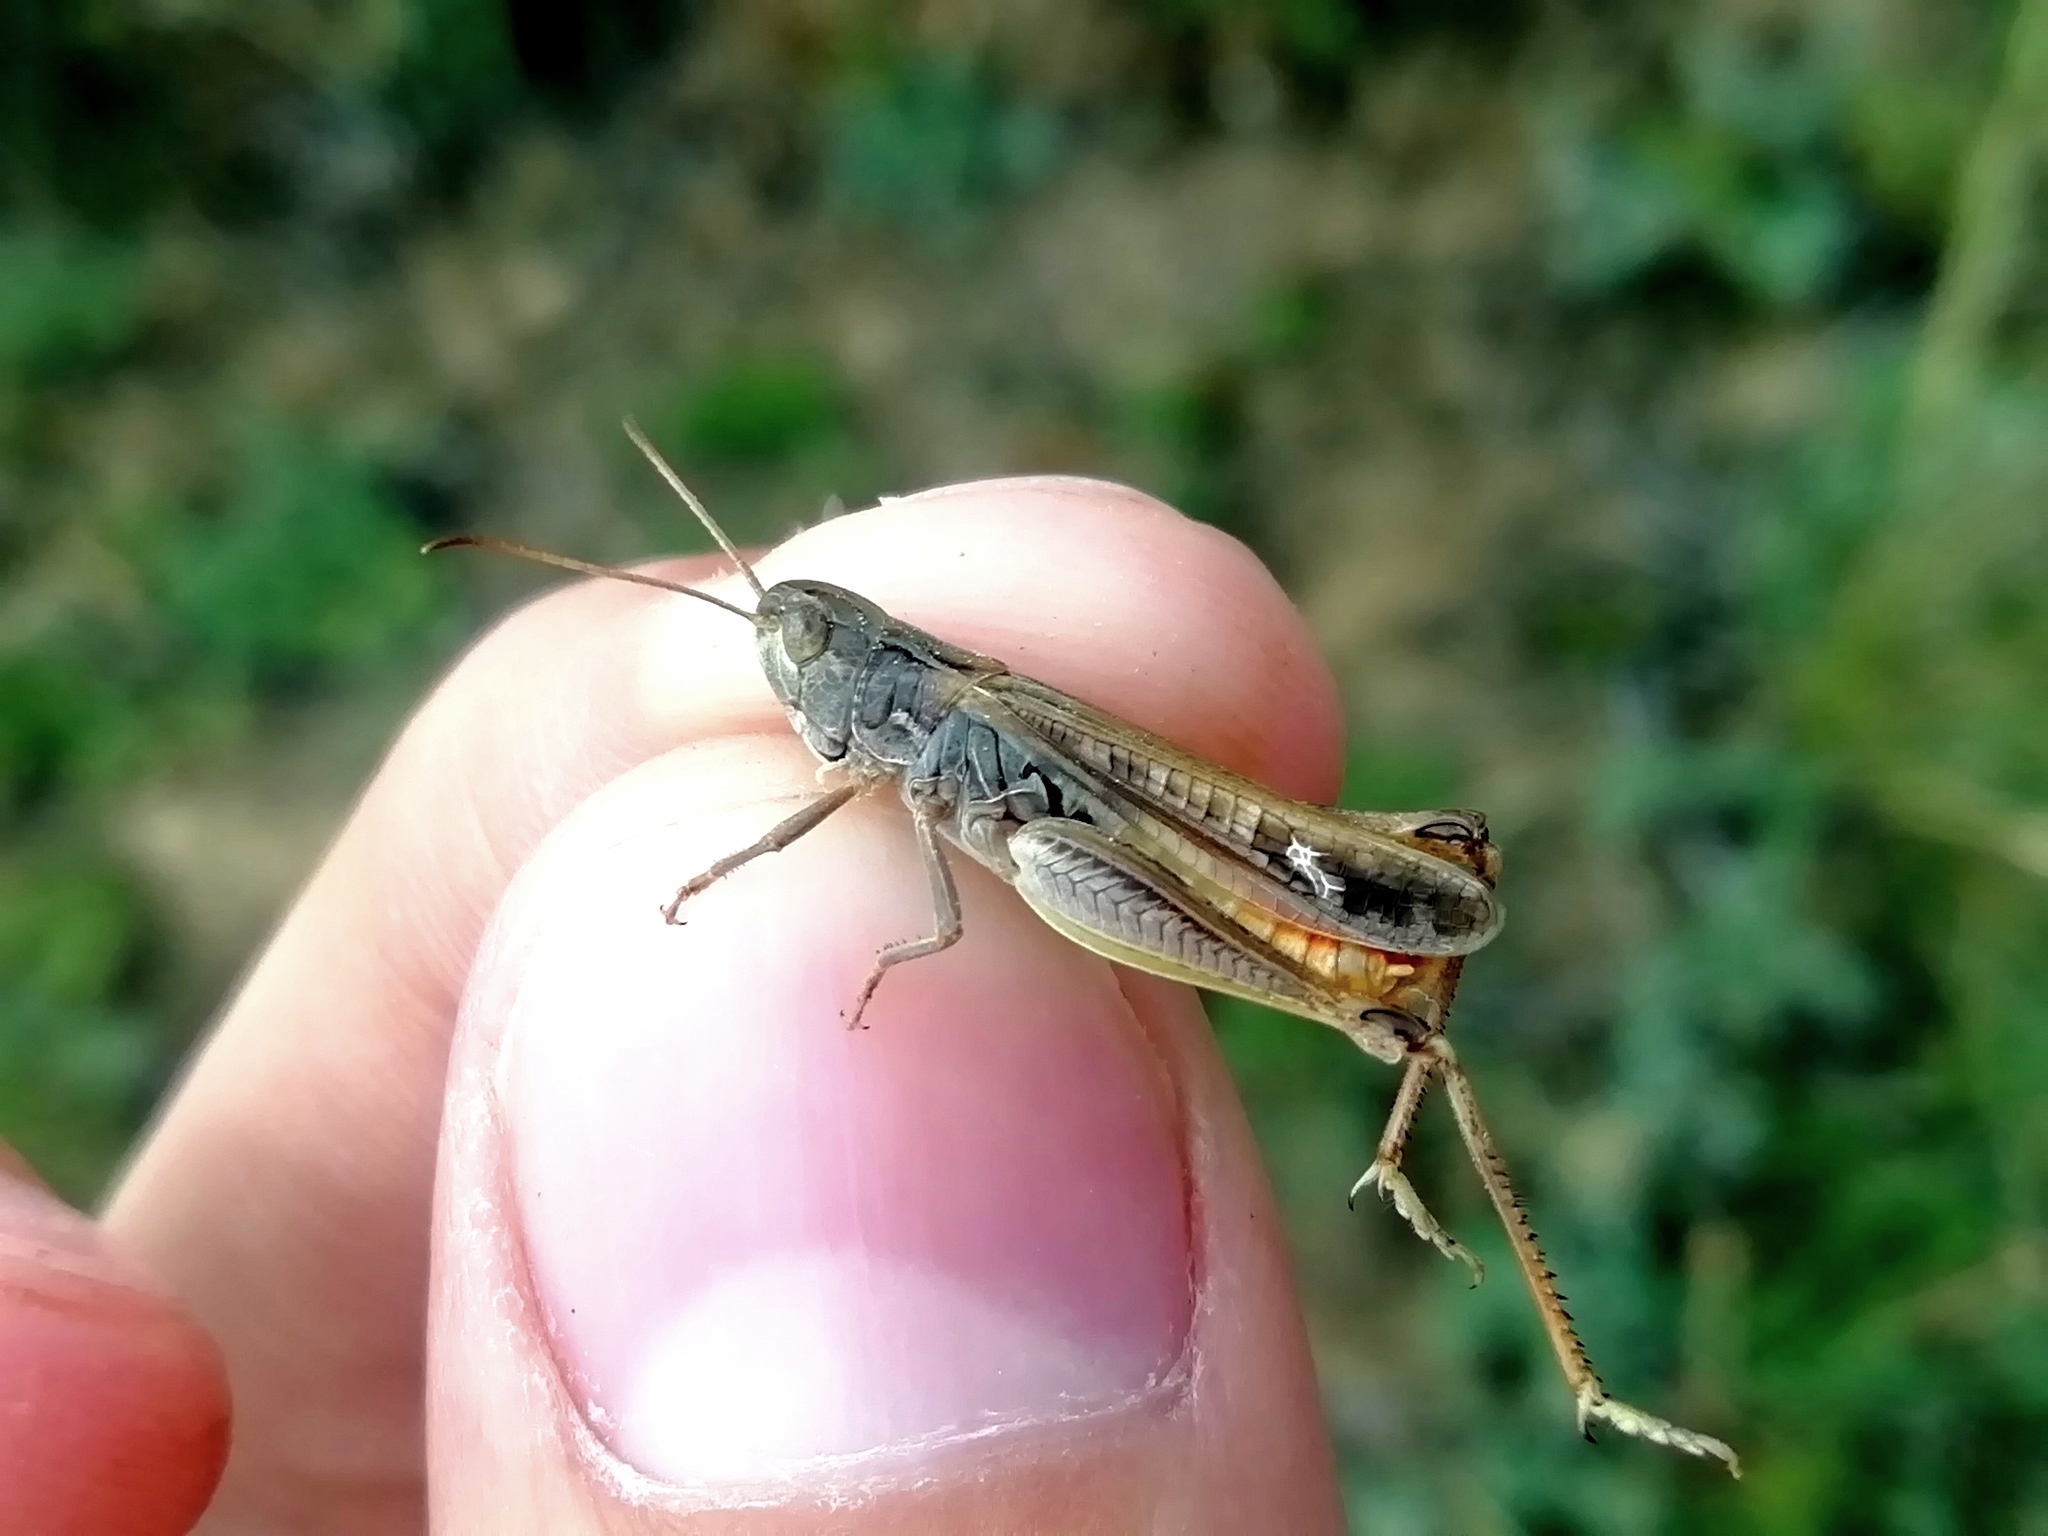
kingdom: Animalia
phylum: Arthropoda
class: Insecta
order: Orthoptera
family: Acrididae
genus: Stenobothrus
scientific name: Stenobothrus eurasius
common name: Eurasian toothed grasshopper
